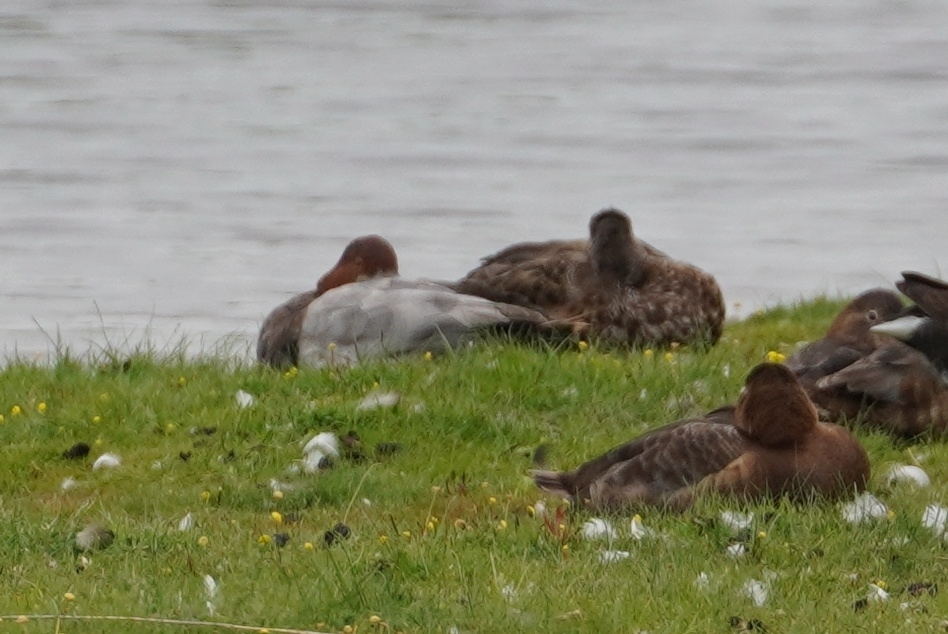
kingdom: Animalia
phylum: Chordata
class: Aves
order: Anseriformes
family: Anatidae
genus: Aythya
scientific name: Aythya ferina
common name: Common pochard
